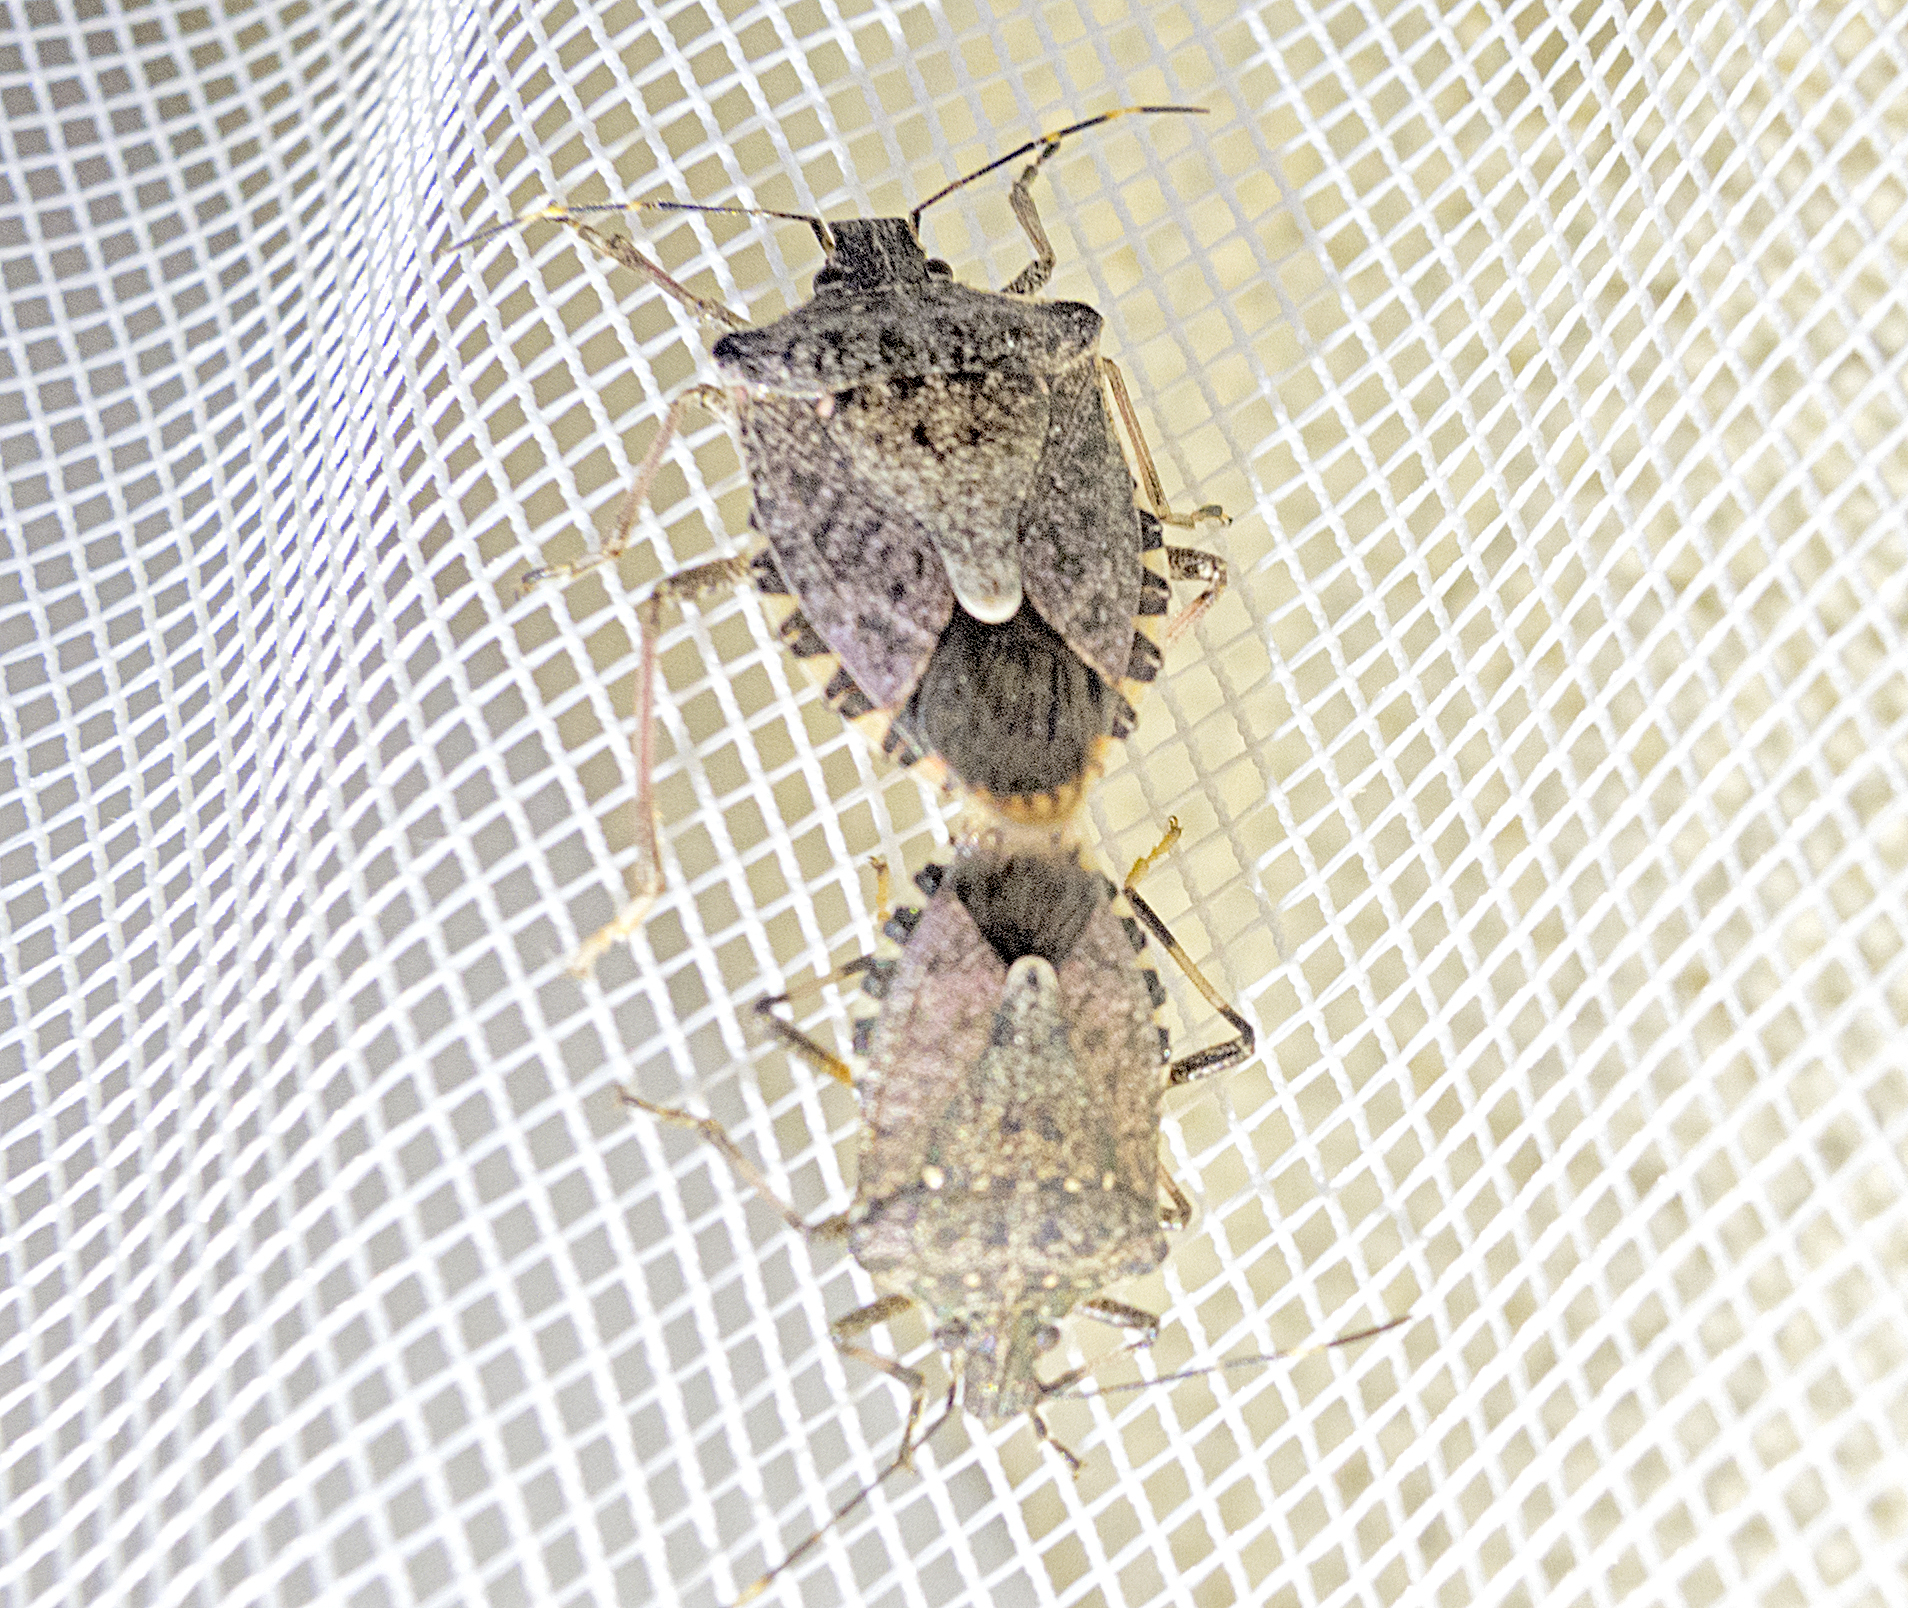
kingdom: Animalia
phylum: Arthropoda
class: Insecta
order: Hemiptera
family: Pentatomidae
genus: Halyomorpha
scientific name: Halyomorpha halys
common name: Brown marmorated stink bug
